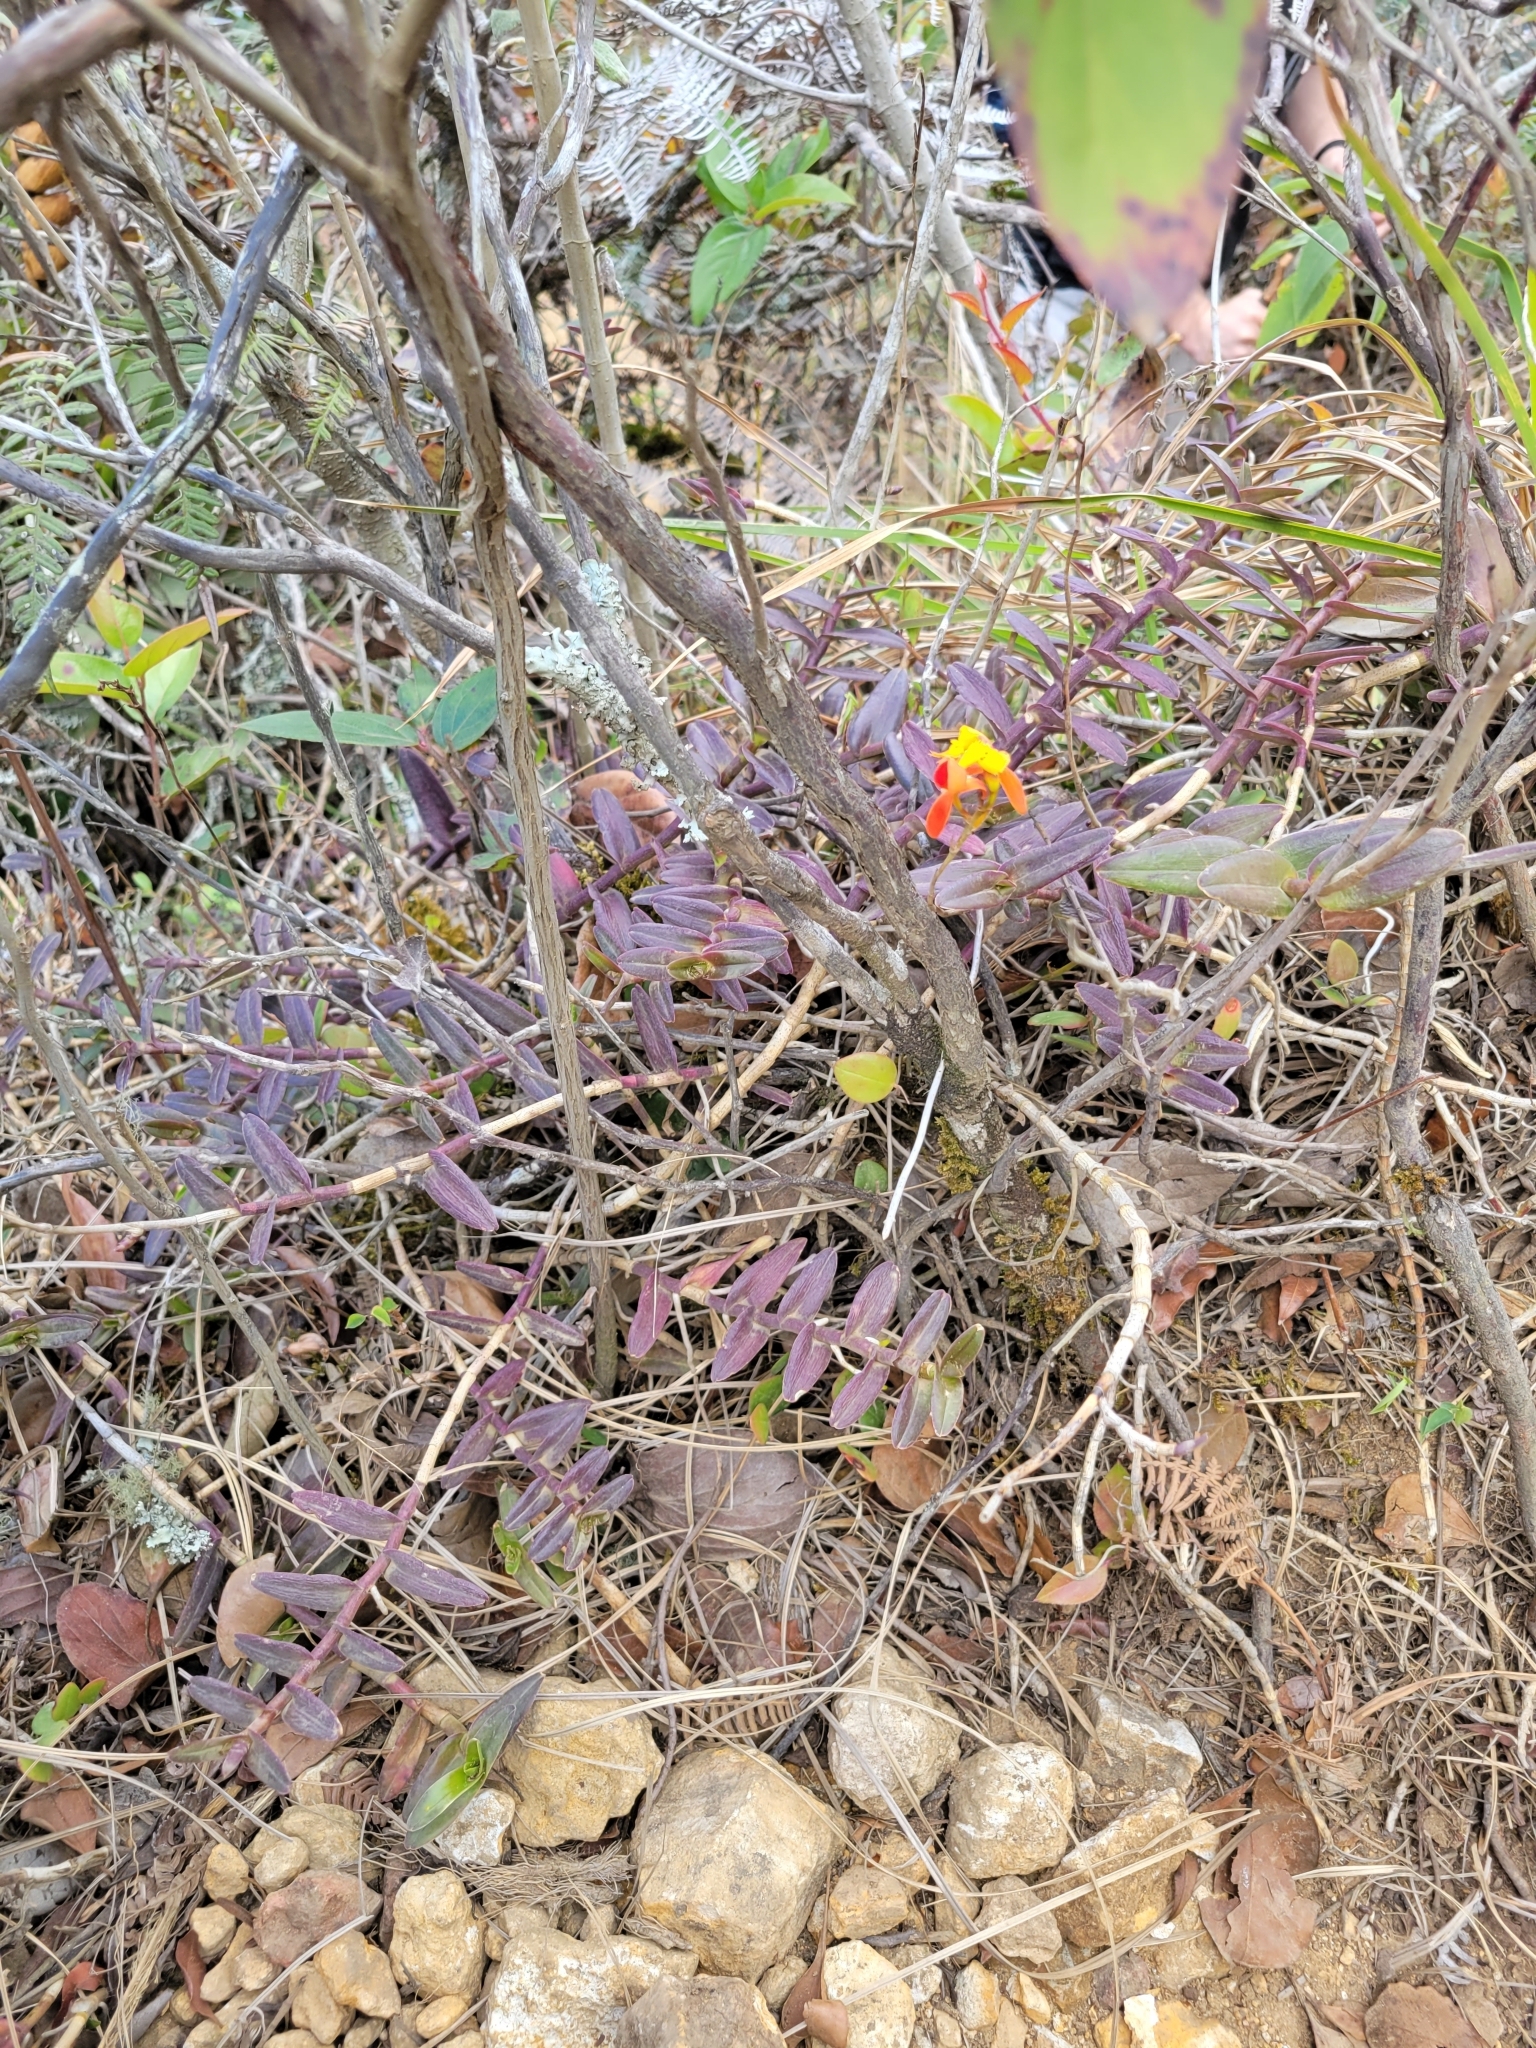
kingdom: Plantae
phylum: Tracheophyta
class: Liliopsida
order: Asparagales
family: Orchidaceae
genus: Epidendrum
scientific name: Epidendrum radicans
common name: Fire star orchid
